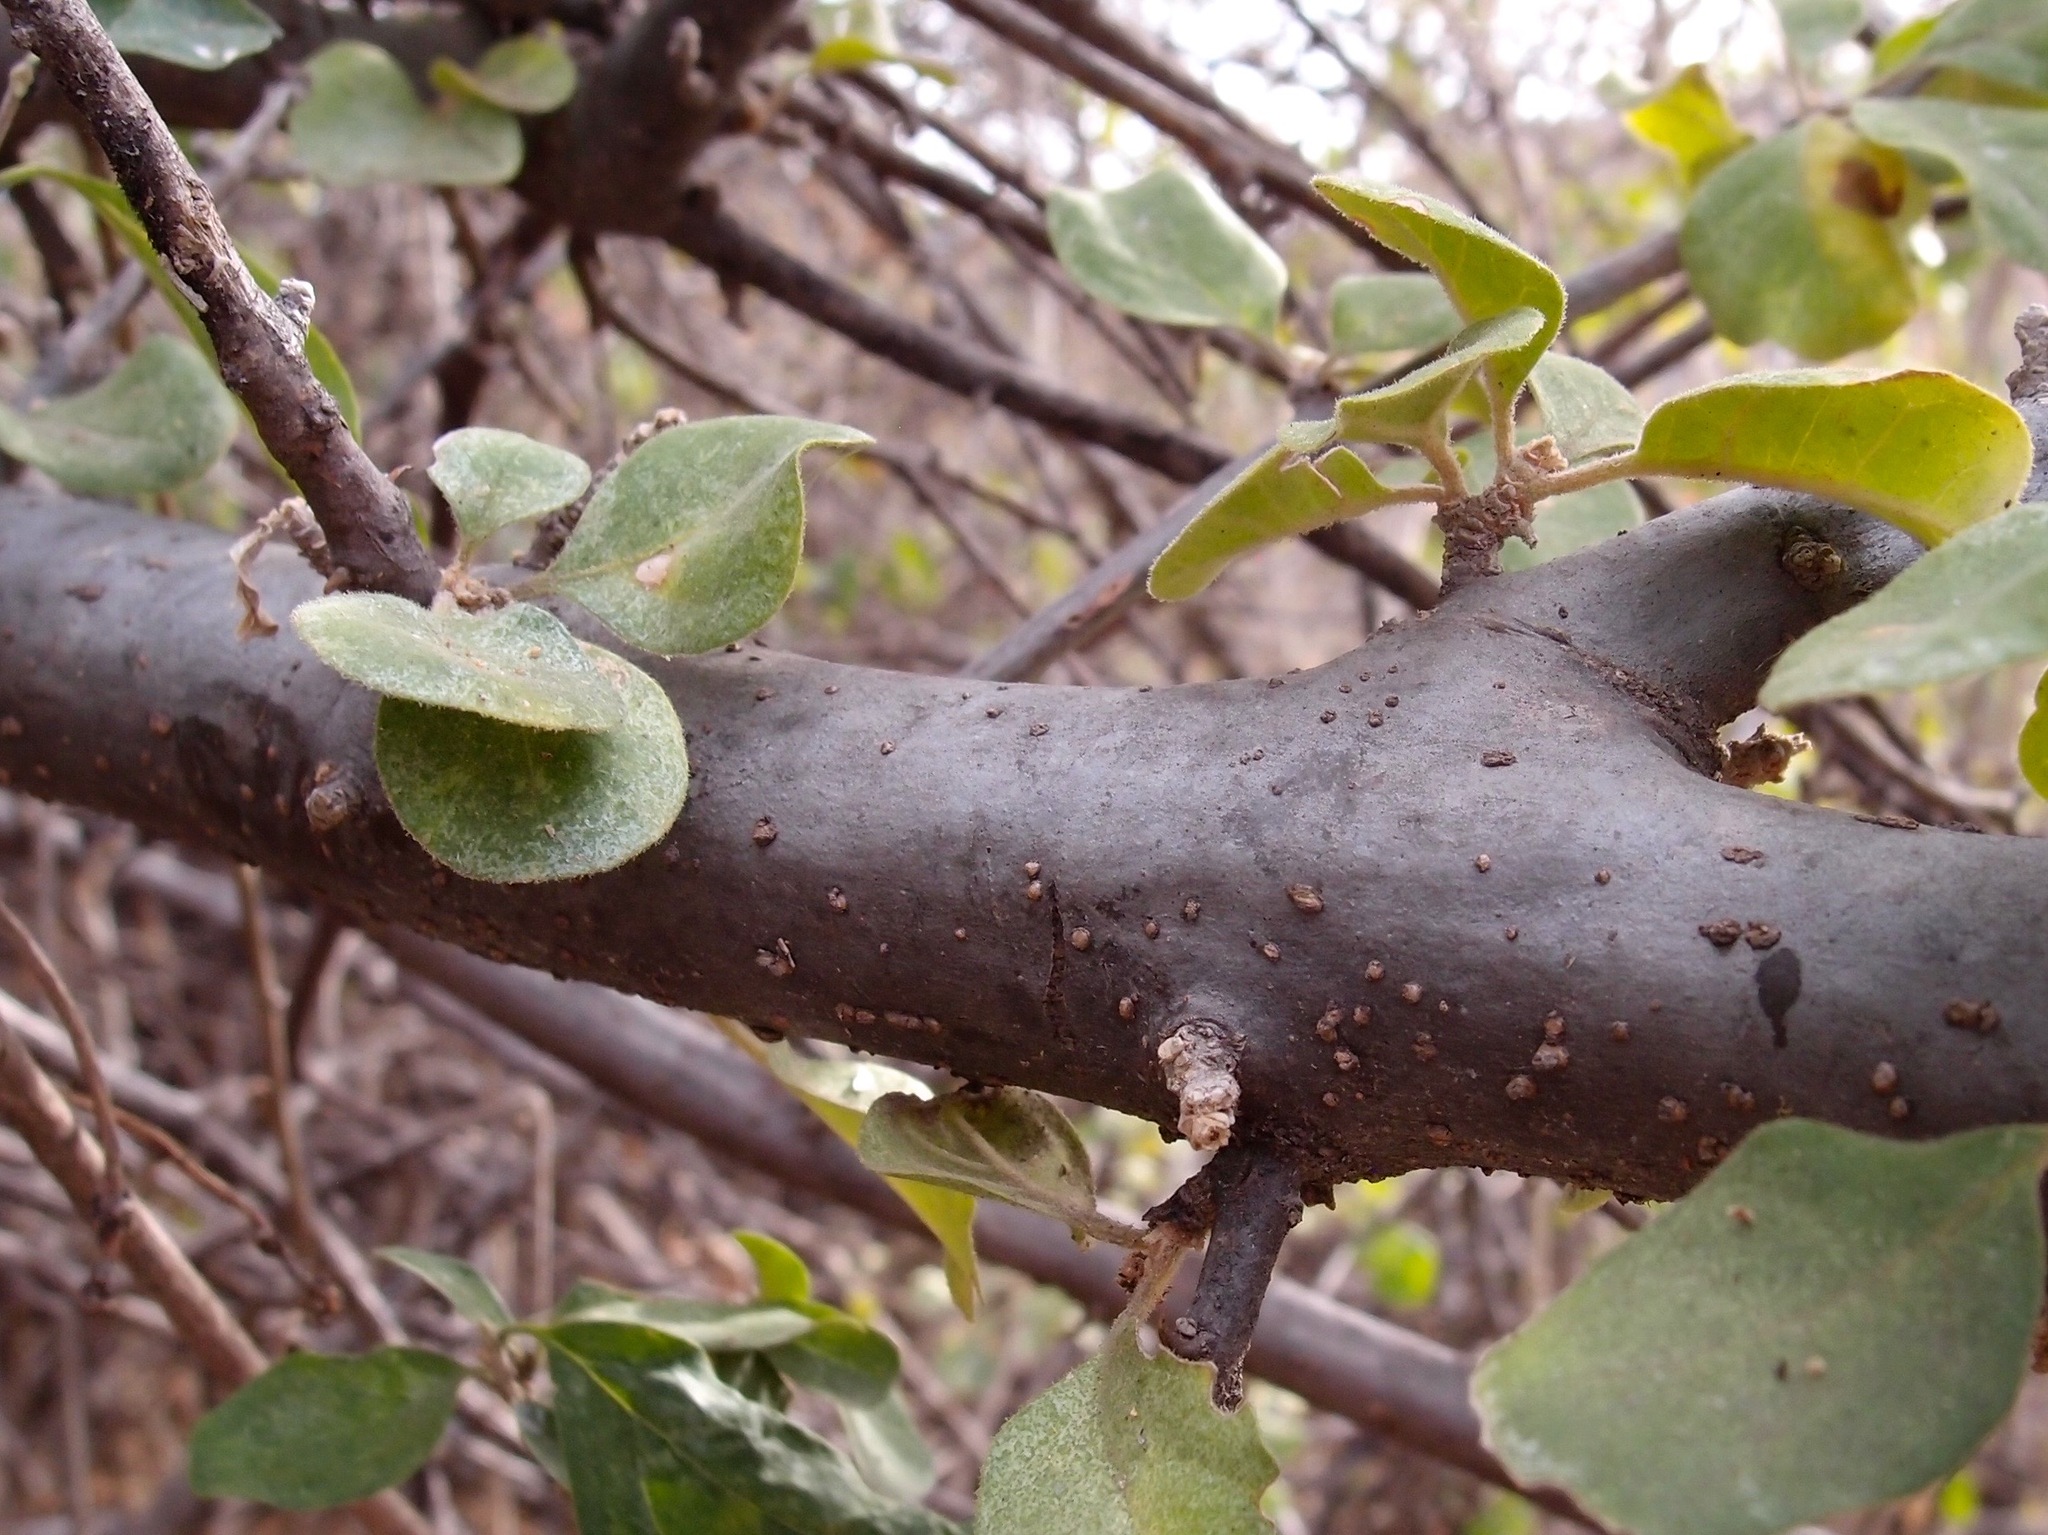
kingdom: Plantae
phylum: Tracheophyta
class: Magnoliopsida
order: Caryophyllales
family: Nyctaginaceae
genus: Pisonia
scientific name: Pisonia capitata
